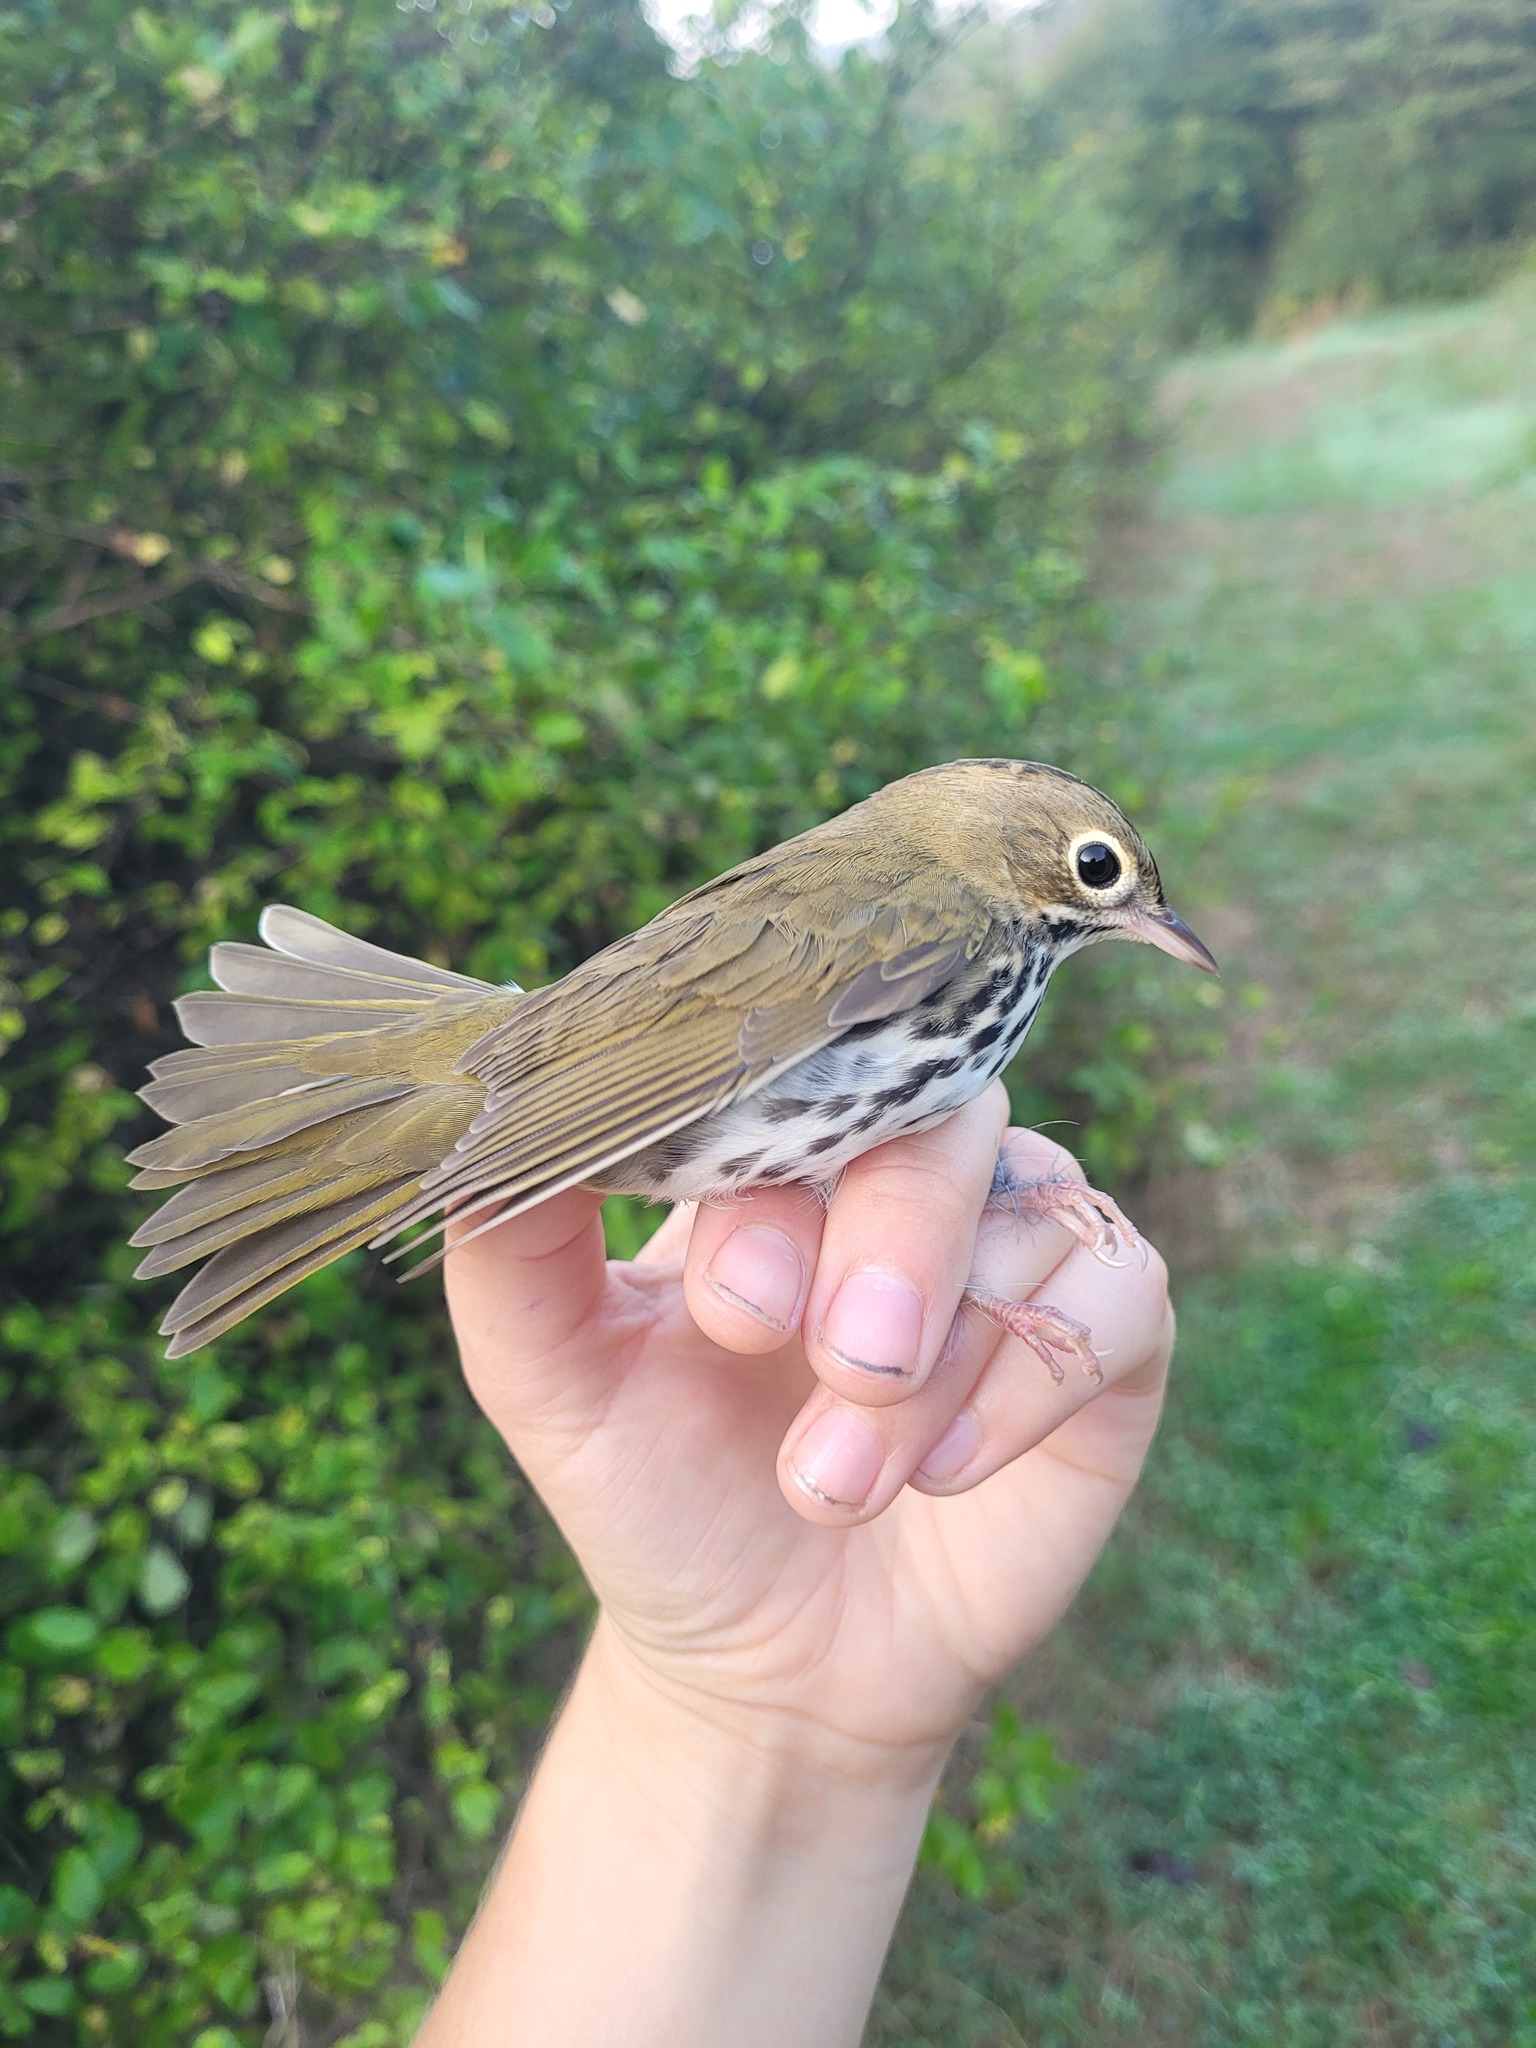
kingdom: Animalia
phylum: Chordata
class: Aves
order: Passeriformes
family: Parulidae
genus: Seiurus
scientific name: Seiurus aurocapilla
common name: Ovenbird
